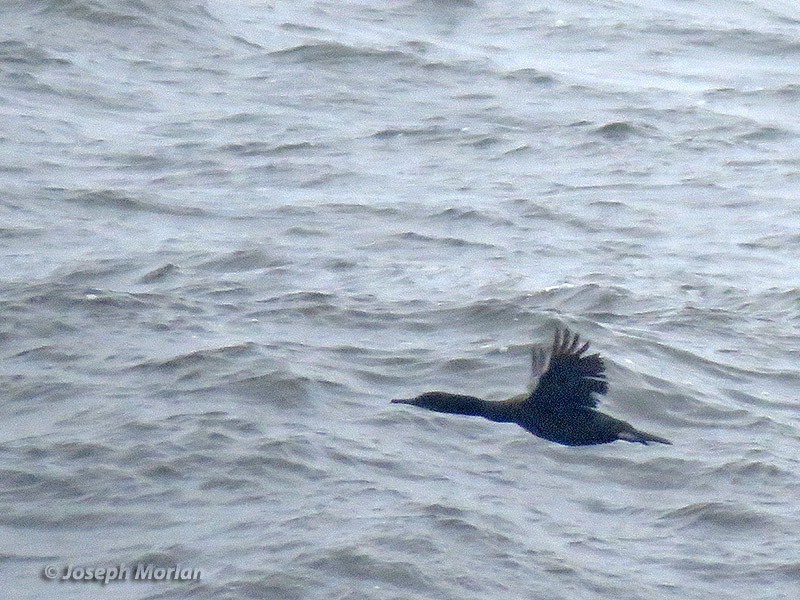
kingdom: Animalia
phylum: Chordata
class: Aves
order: Suliformes
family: Phalacrocoracidae
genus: Urile
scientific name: Urile penicillatus
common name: Brandt's cormorant
